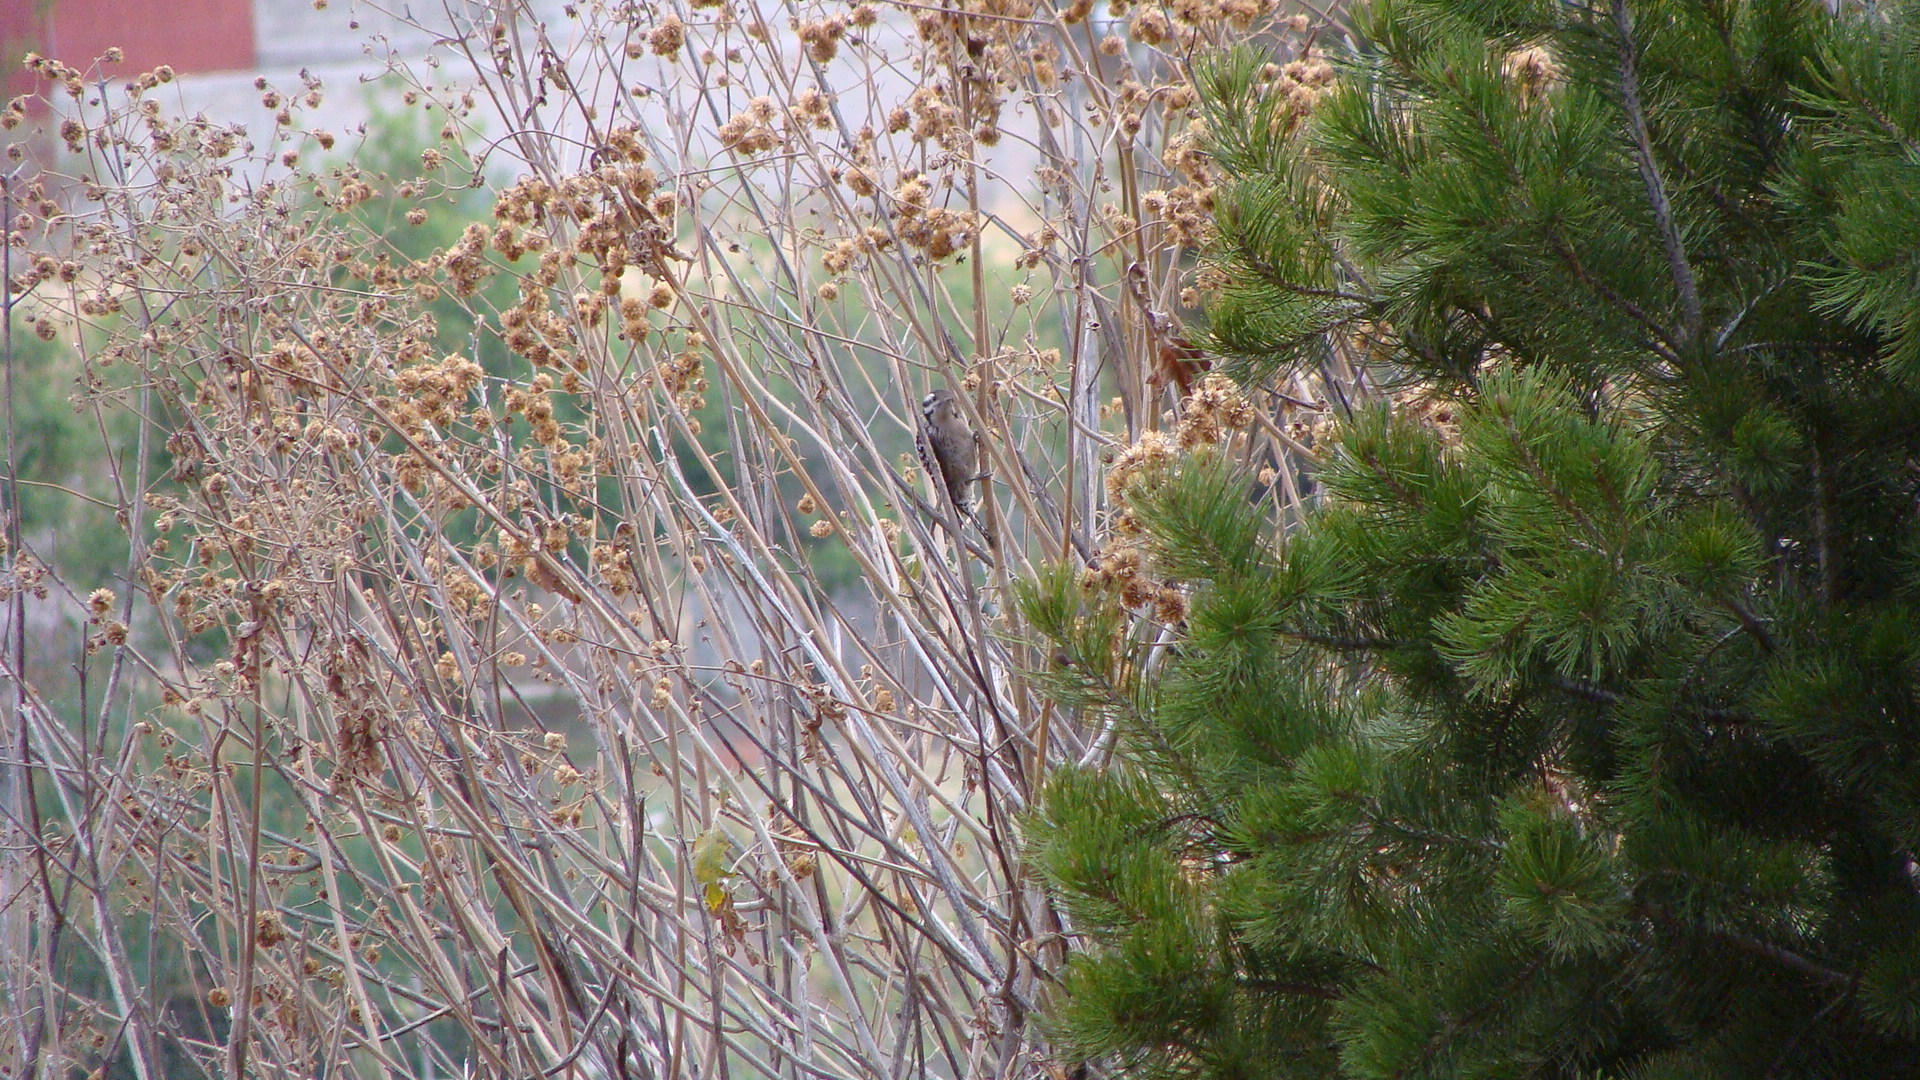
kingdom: Animalia
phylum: Chordata
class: Aves
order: Piciformes
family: Picidae
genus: Dryobates
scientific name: Dryobates scalaris
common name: Ladder-backed woodpecker
